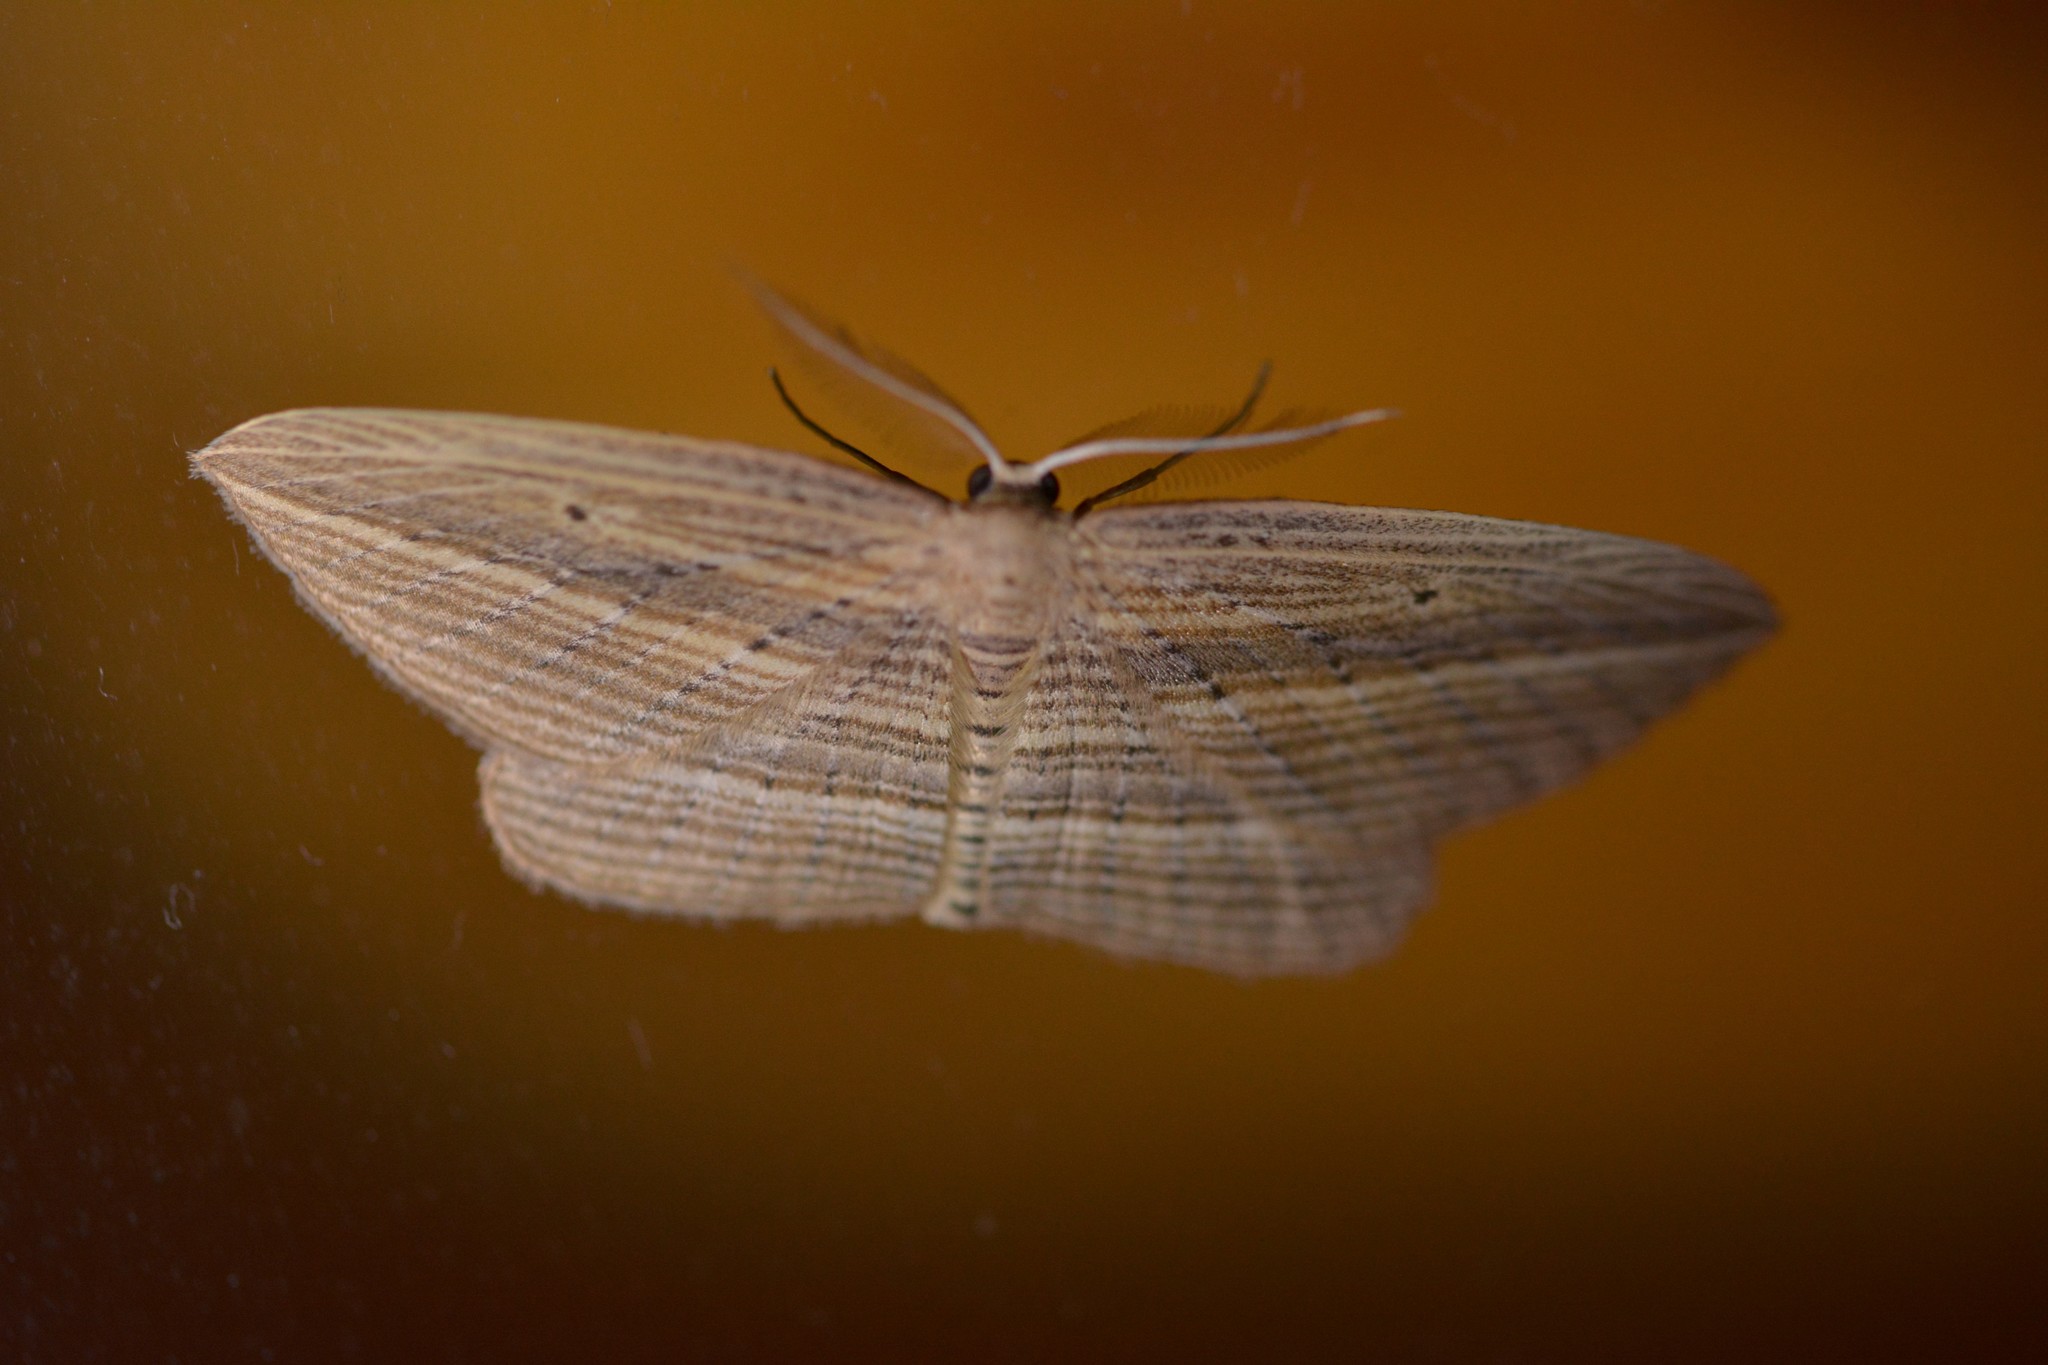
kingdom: Animalia
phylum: Arthropoda
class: Insecta
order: Lepidoptera
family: Geometridae
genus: Epiphryne
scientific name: Epiphryne verriculata
